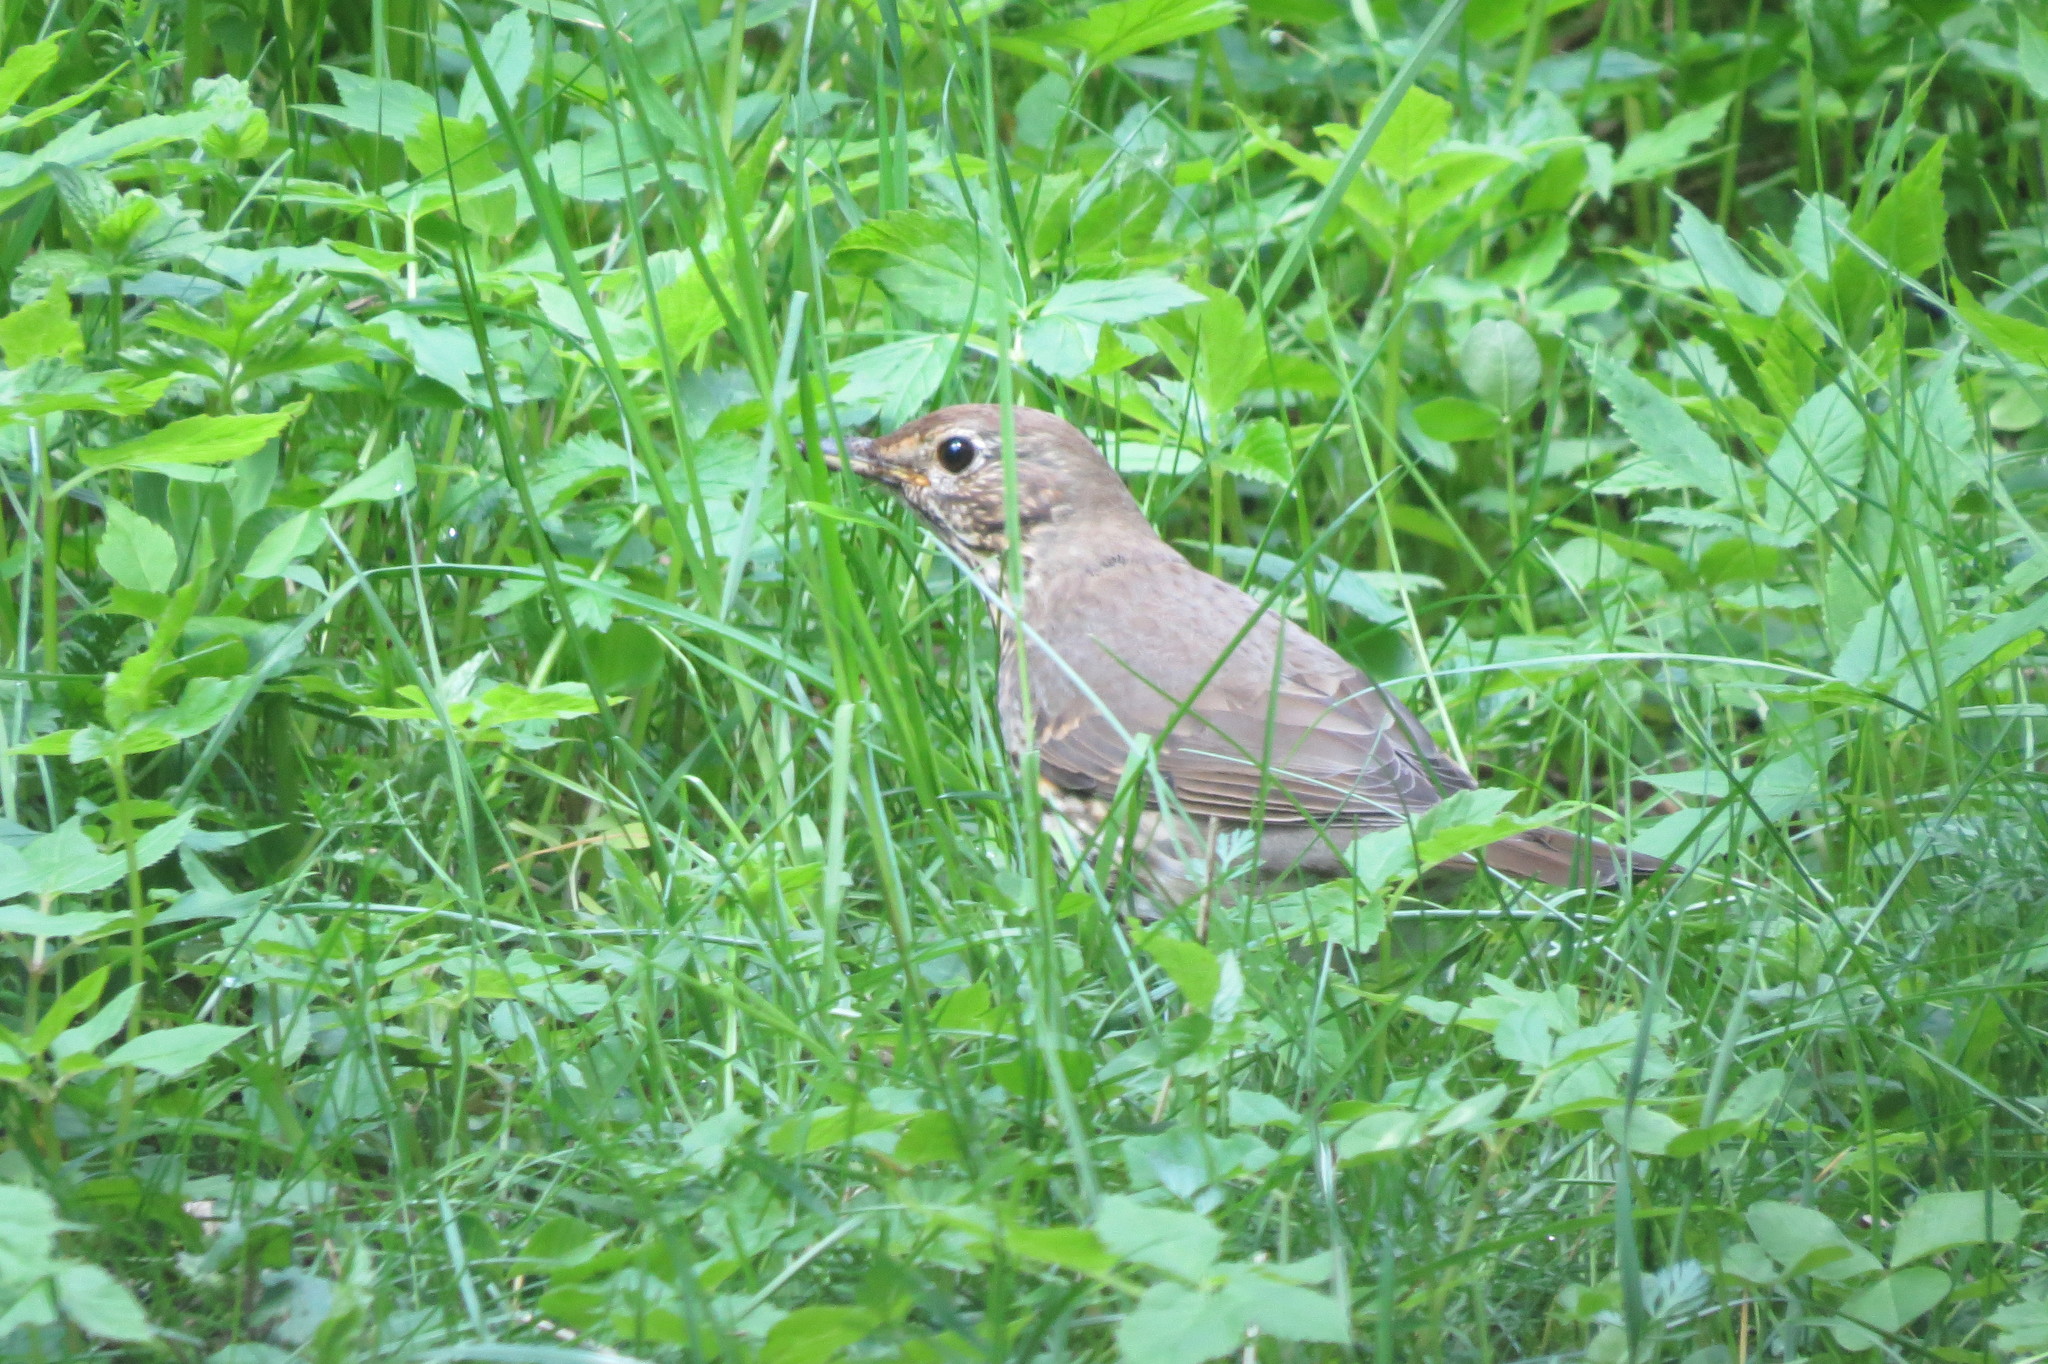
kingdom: Animalia
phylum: Chordata
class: Aves
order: Passeriformes
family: Turdidae
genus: Turdus
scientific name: Turdus philomelos
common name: Song thrush
